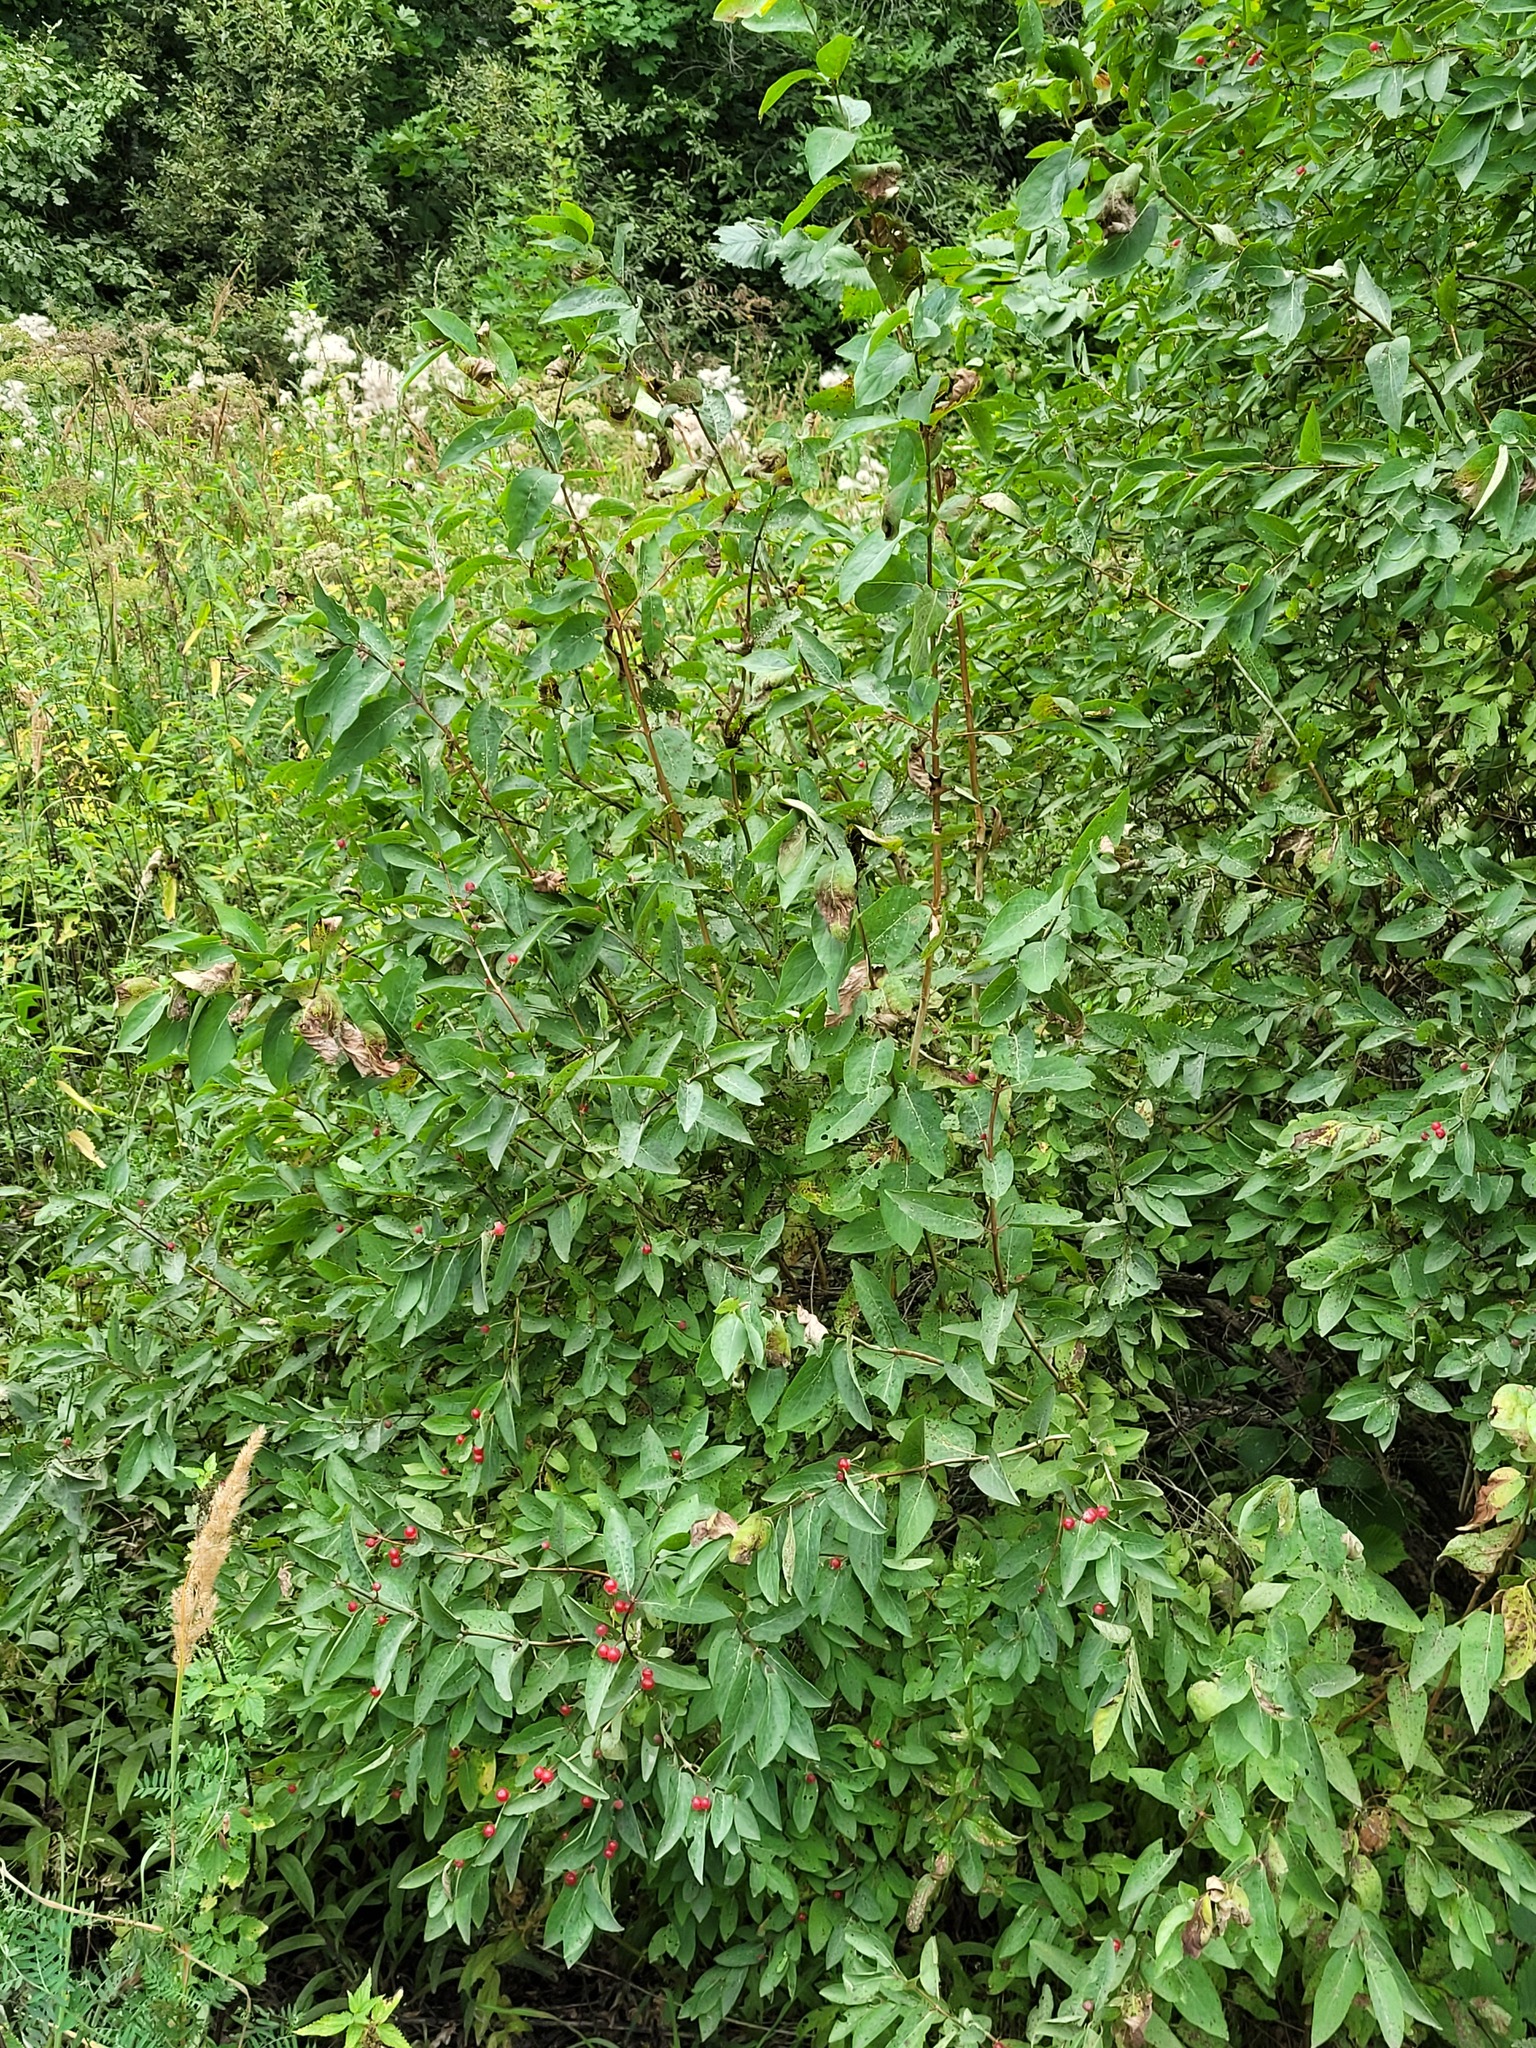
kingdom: Plantae
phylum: Tracheophyta
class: Magnoliopsida
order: Dipsacales
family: Caprifoliaceae
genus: Lonicera
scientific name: Lonicera tatarica
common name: Tatarian honeysuckle
